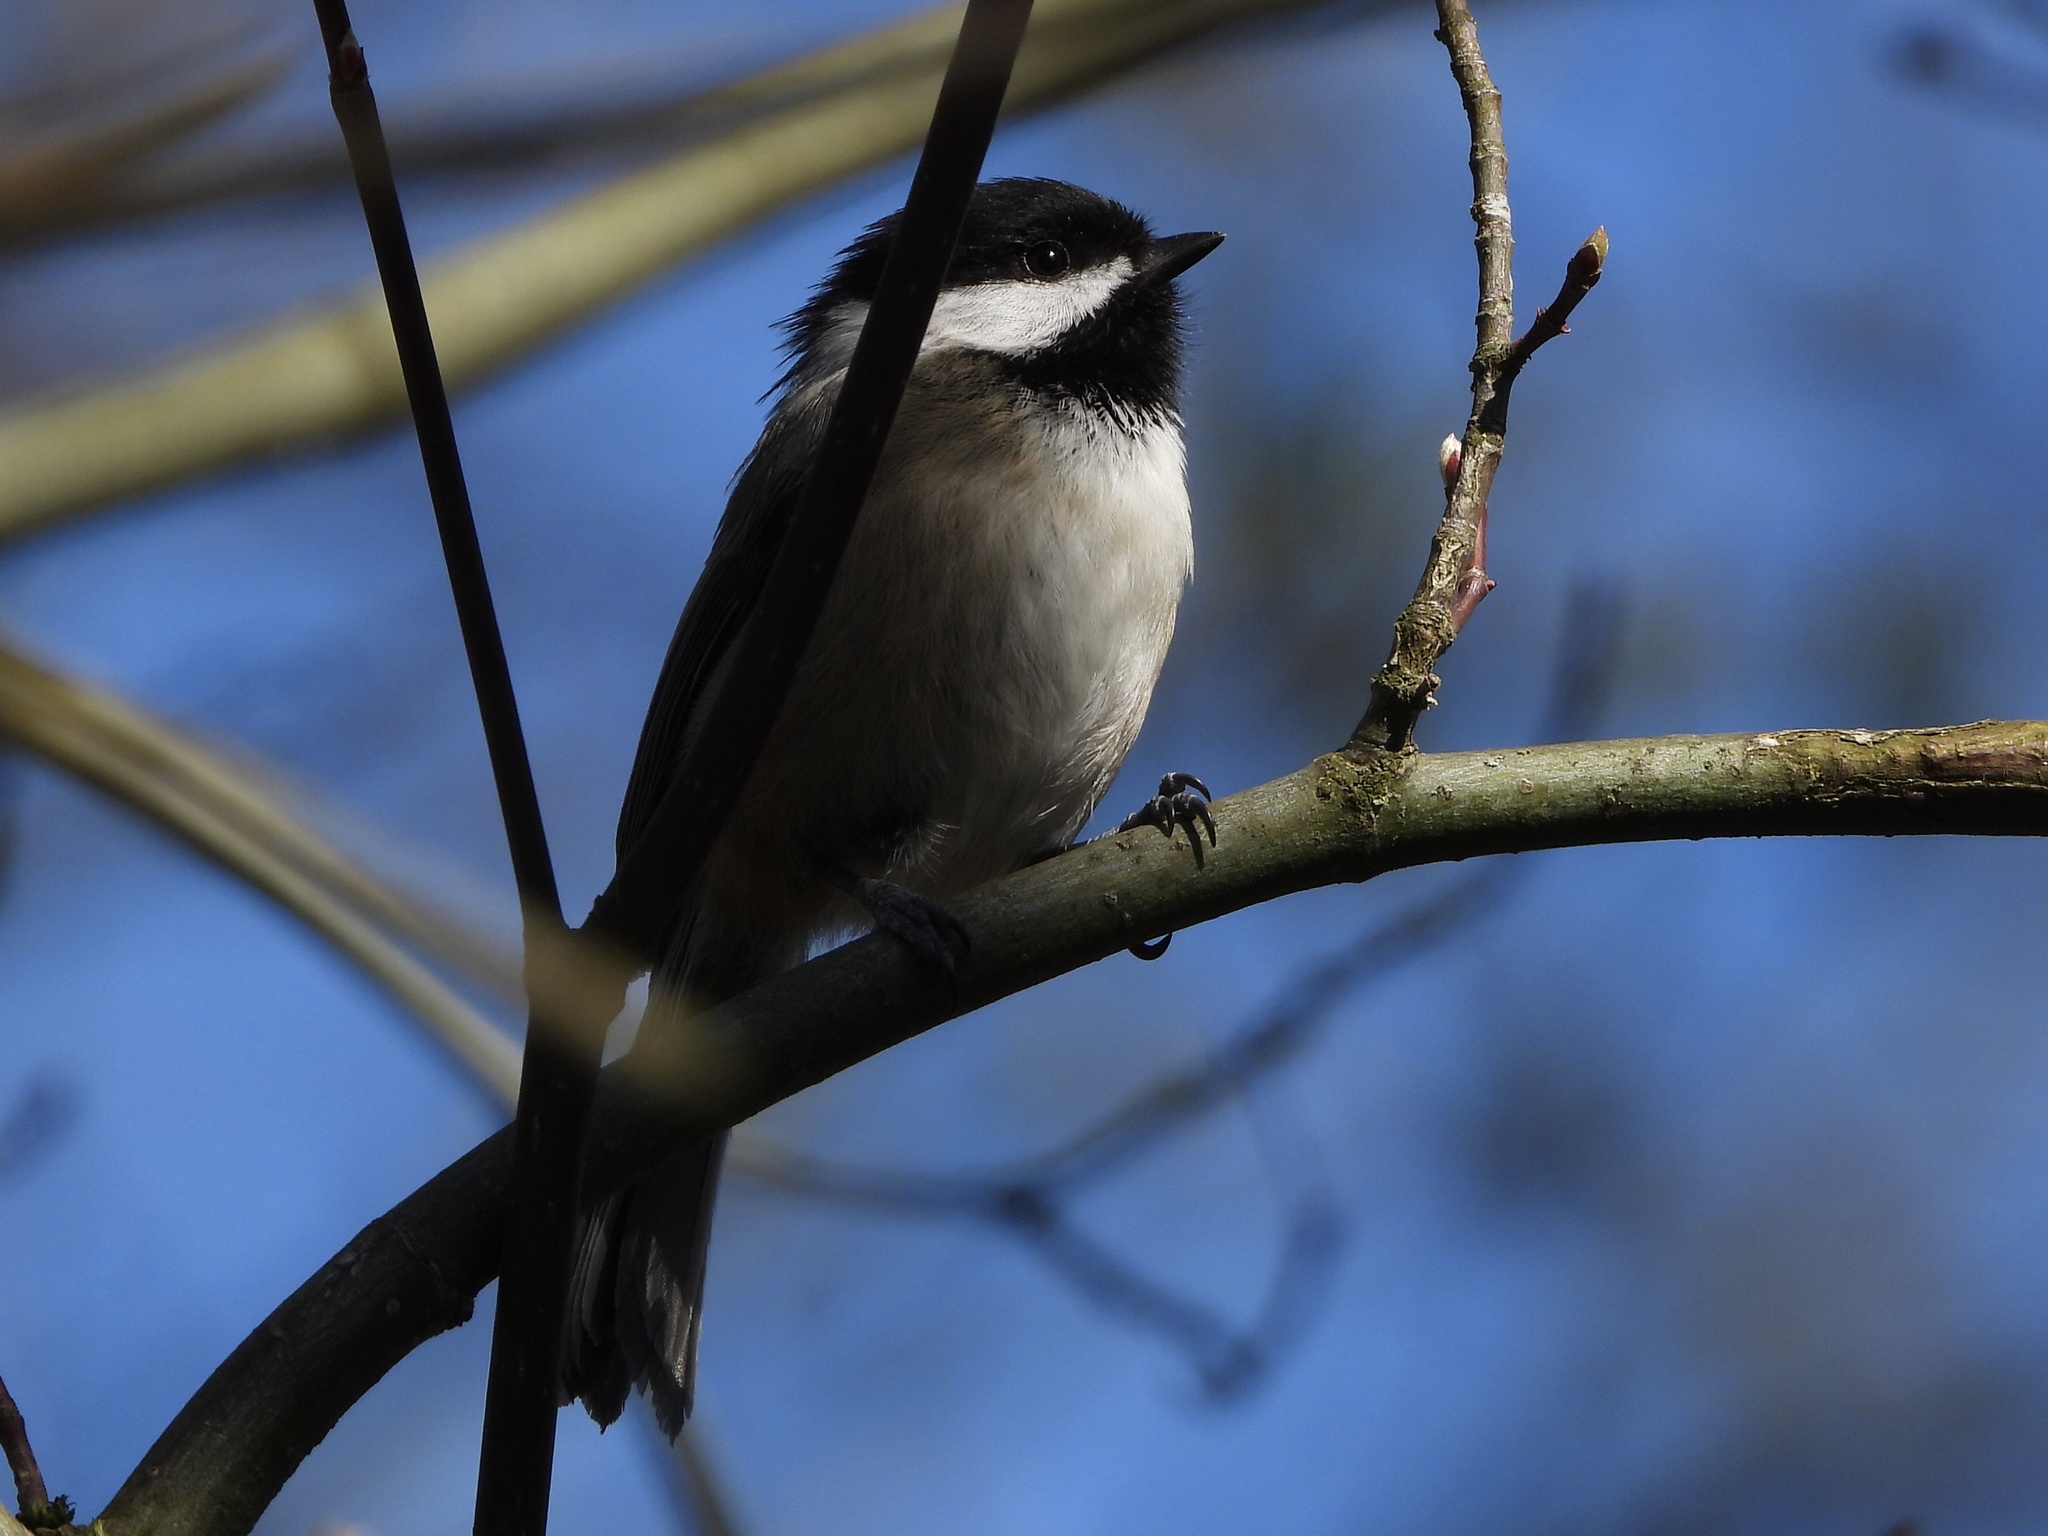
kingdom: Animalia
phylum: Chordata
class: Aves
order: Passeriformes
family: Paridae
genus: Poecile
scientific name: Poecile atricapillus
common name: Black-capped chickadee
